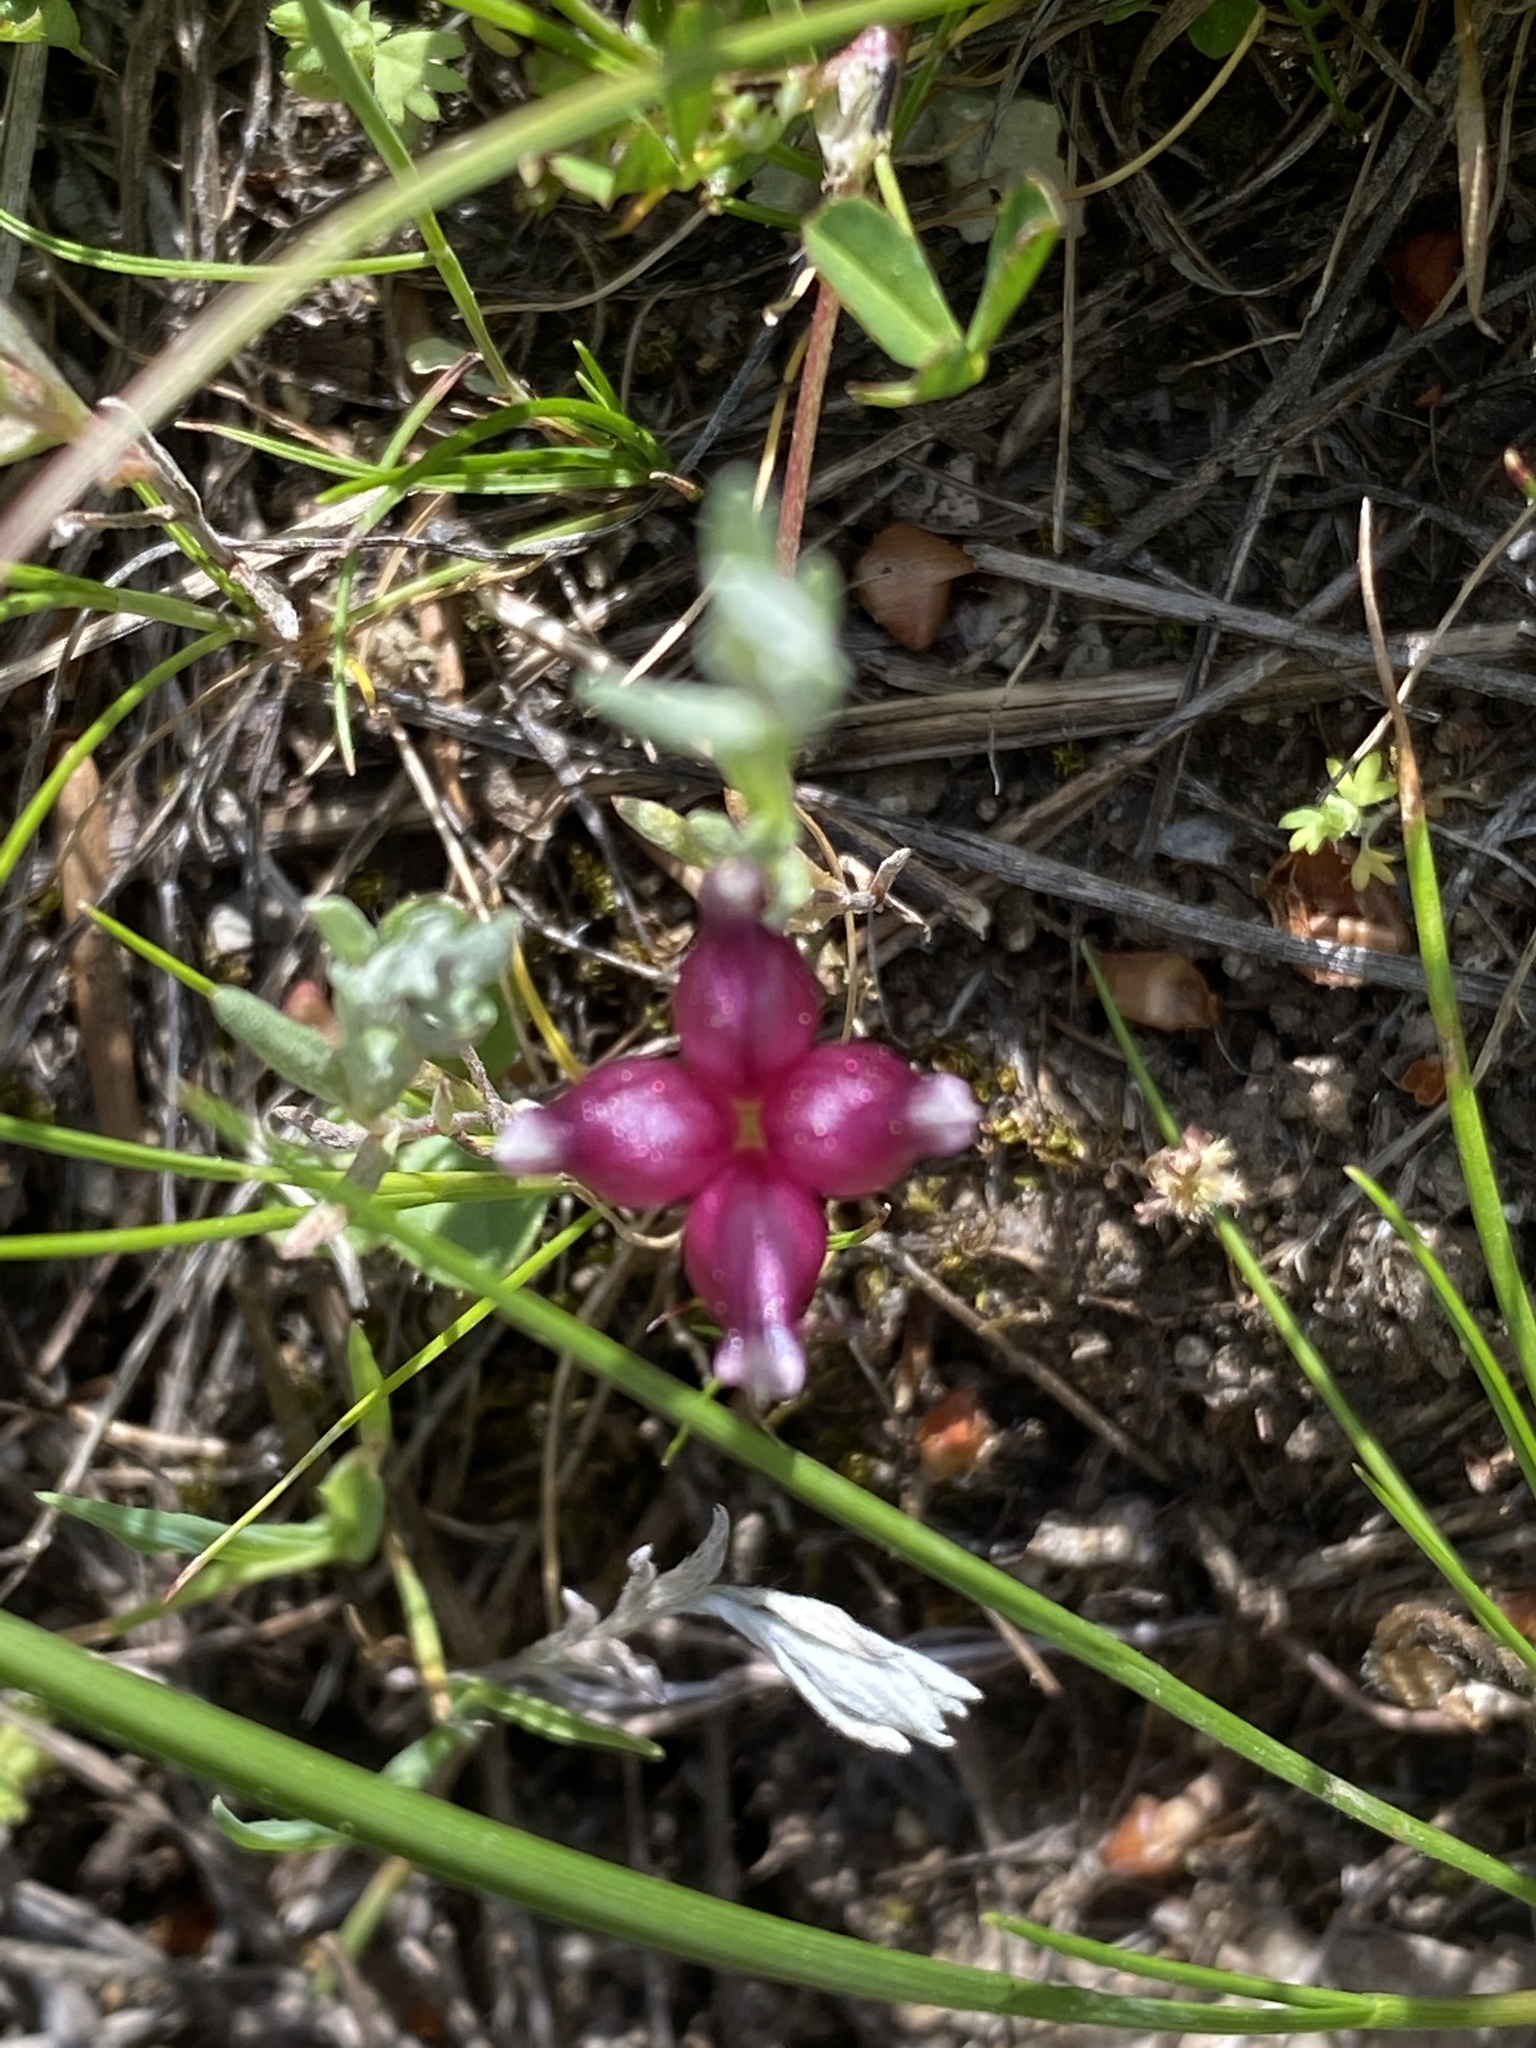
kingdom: Plantae
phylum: Tracheophyta
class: Magnoliopsida
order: Fabales
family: Fabaceae
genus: Trifolium
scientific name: Trifolium depauperatum
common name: Poverty clover
